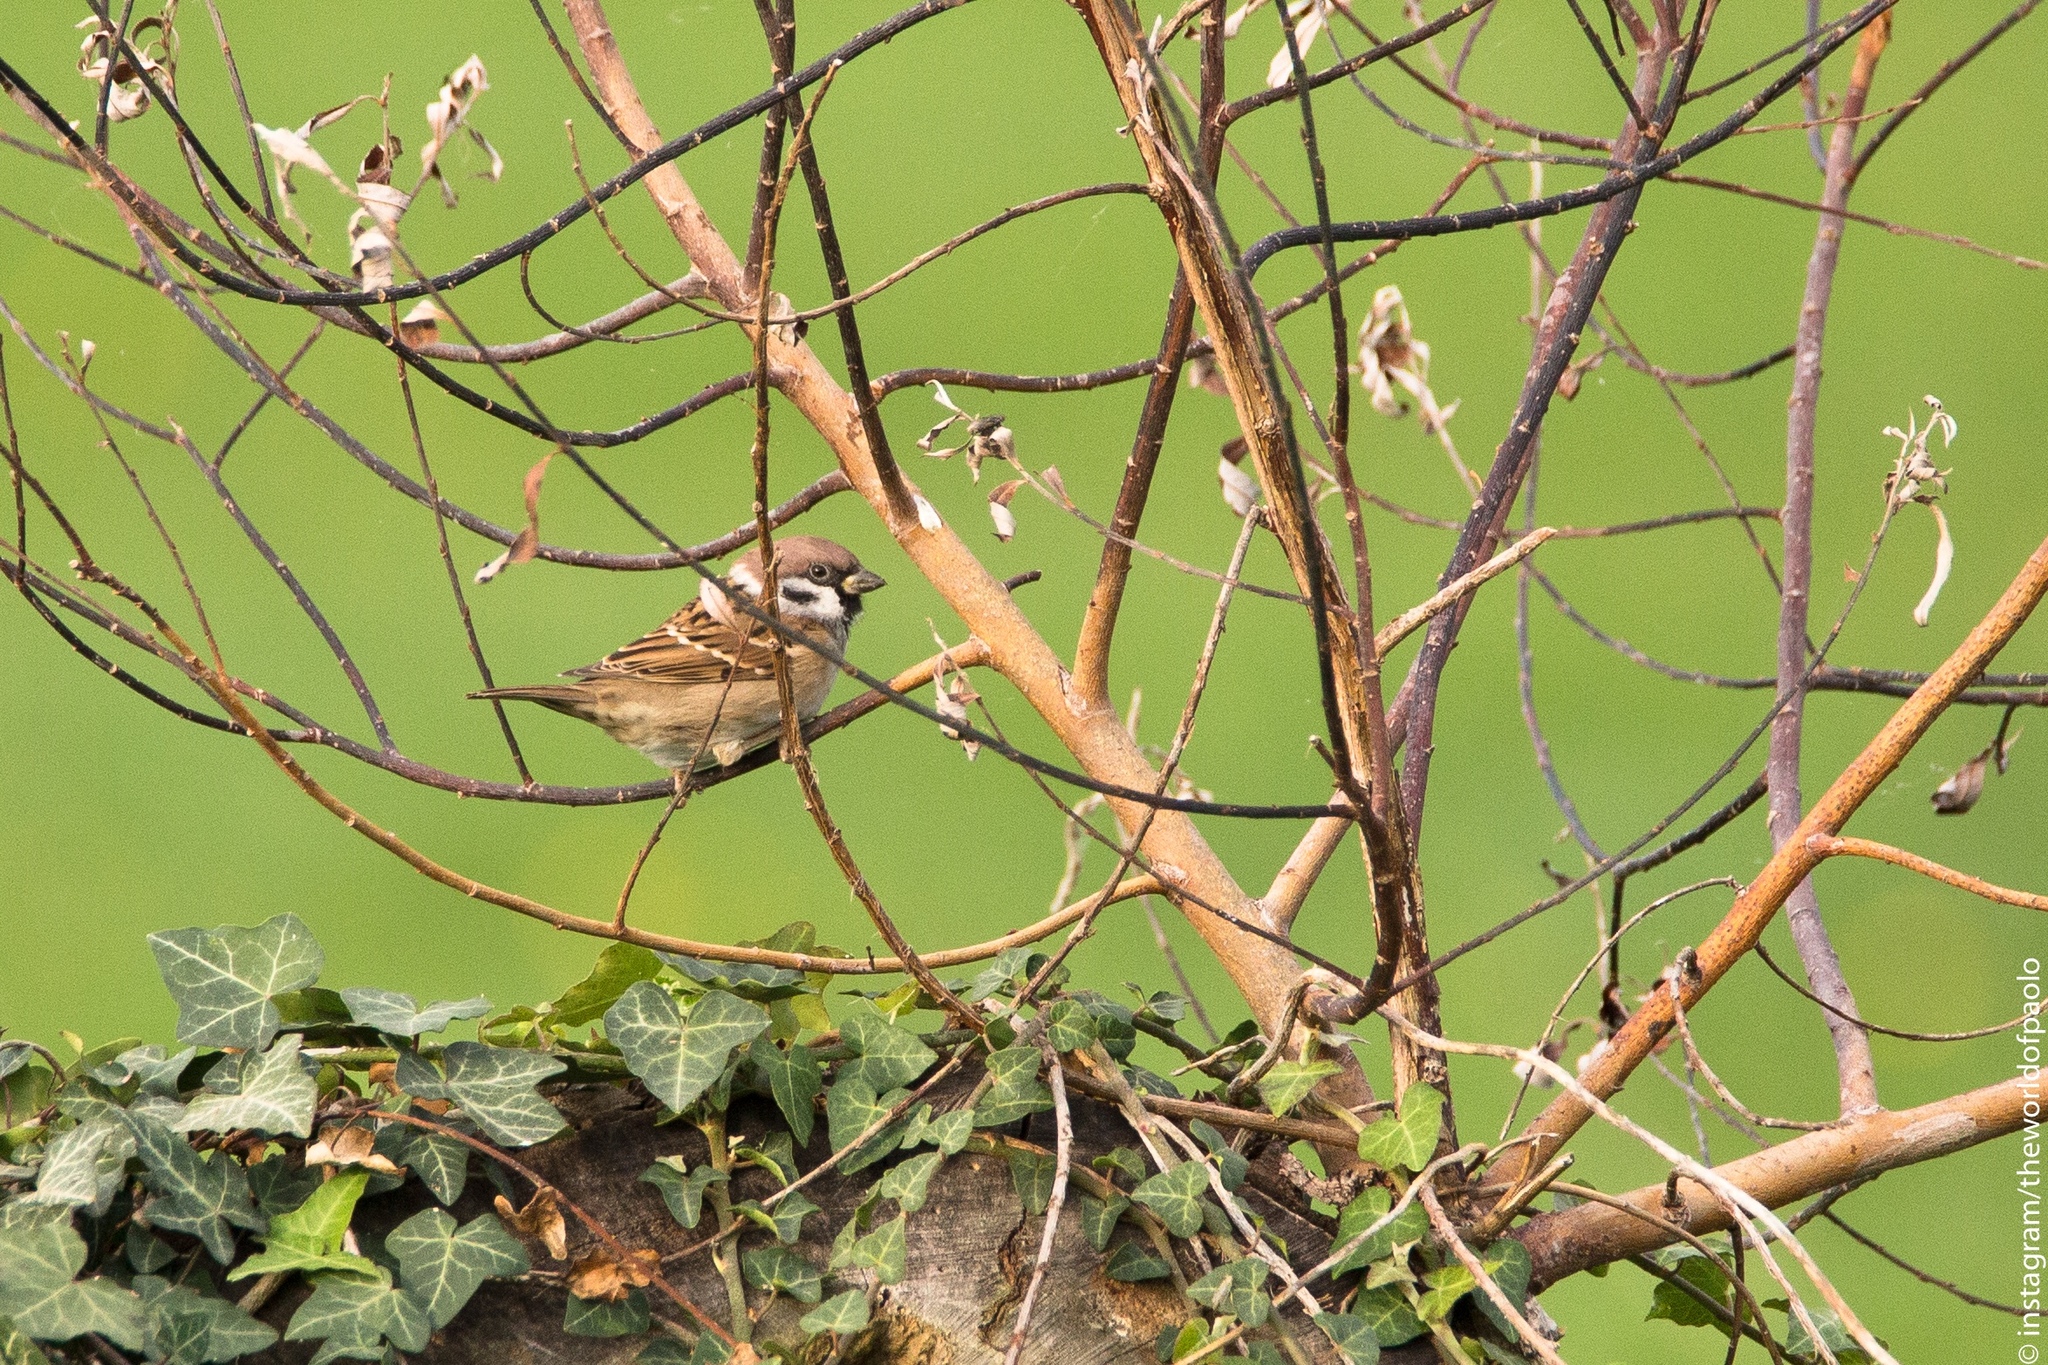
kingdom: Animalia
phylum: Chordata
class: Aves
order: Passeriformes
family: Passeridae
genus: Passer
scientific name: Passer montanus
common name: Eurasian tree sparrow
